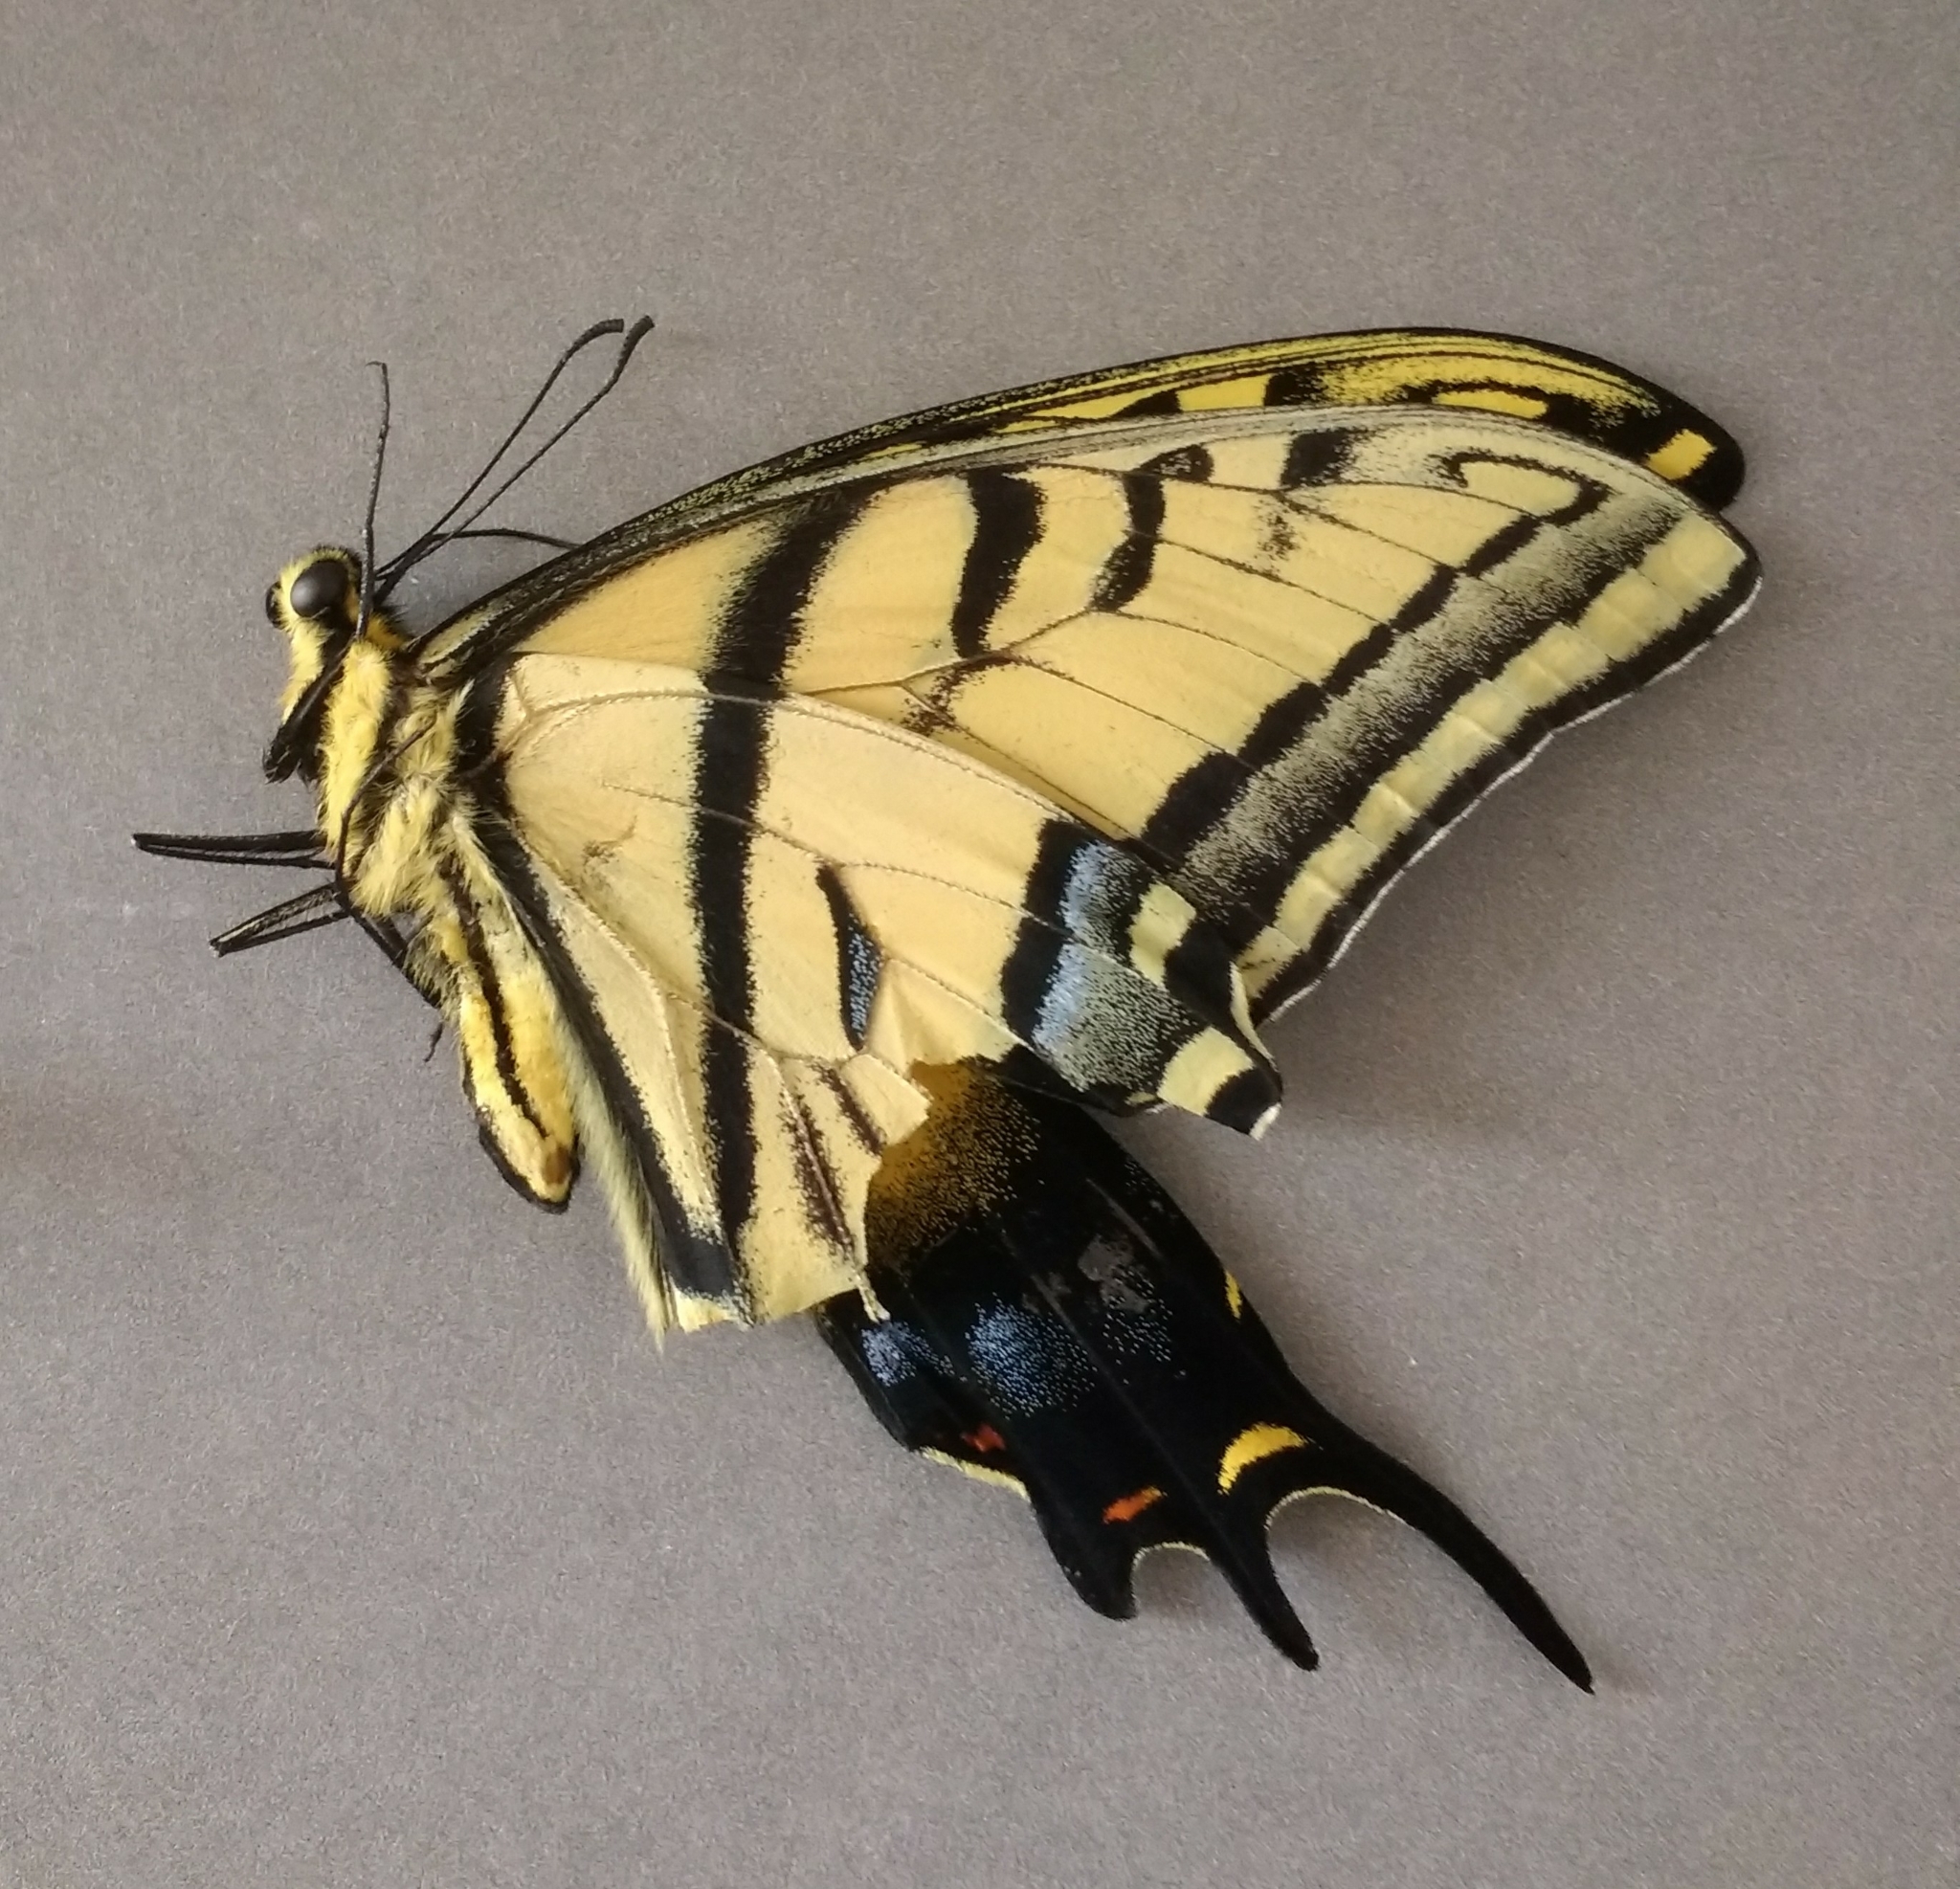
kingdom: Animalia
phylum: Arthropoda
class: Insecta
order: Lepidoptera
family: Papilionidae
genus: Papilio
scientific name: Papilio multicaudata
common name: Two-tailed tiger swallowtail
